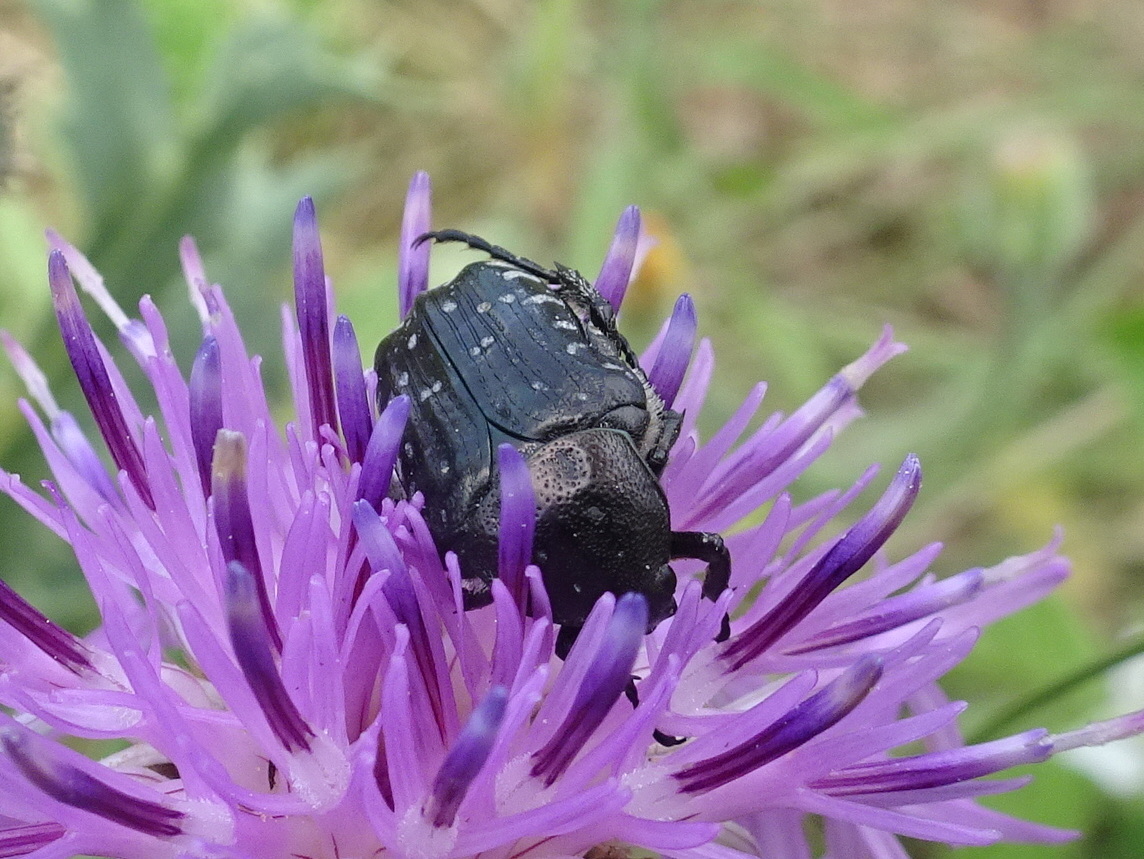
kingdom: Animalia
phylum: Arthropoda
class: Insecta
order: Coleoptera
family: Scarabaeidae
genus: Oxythyrea
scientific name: Oxythyrea funesta
